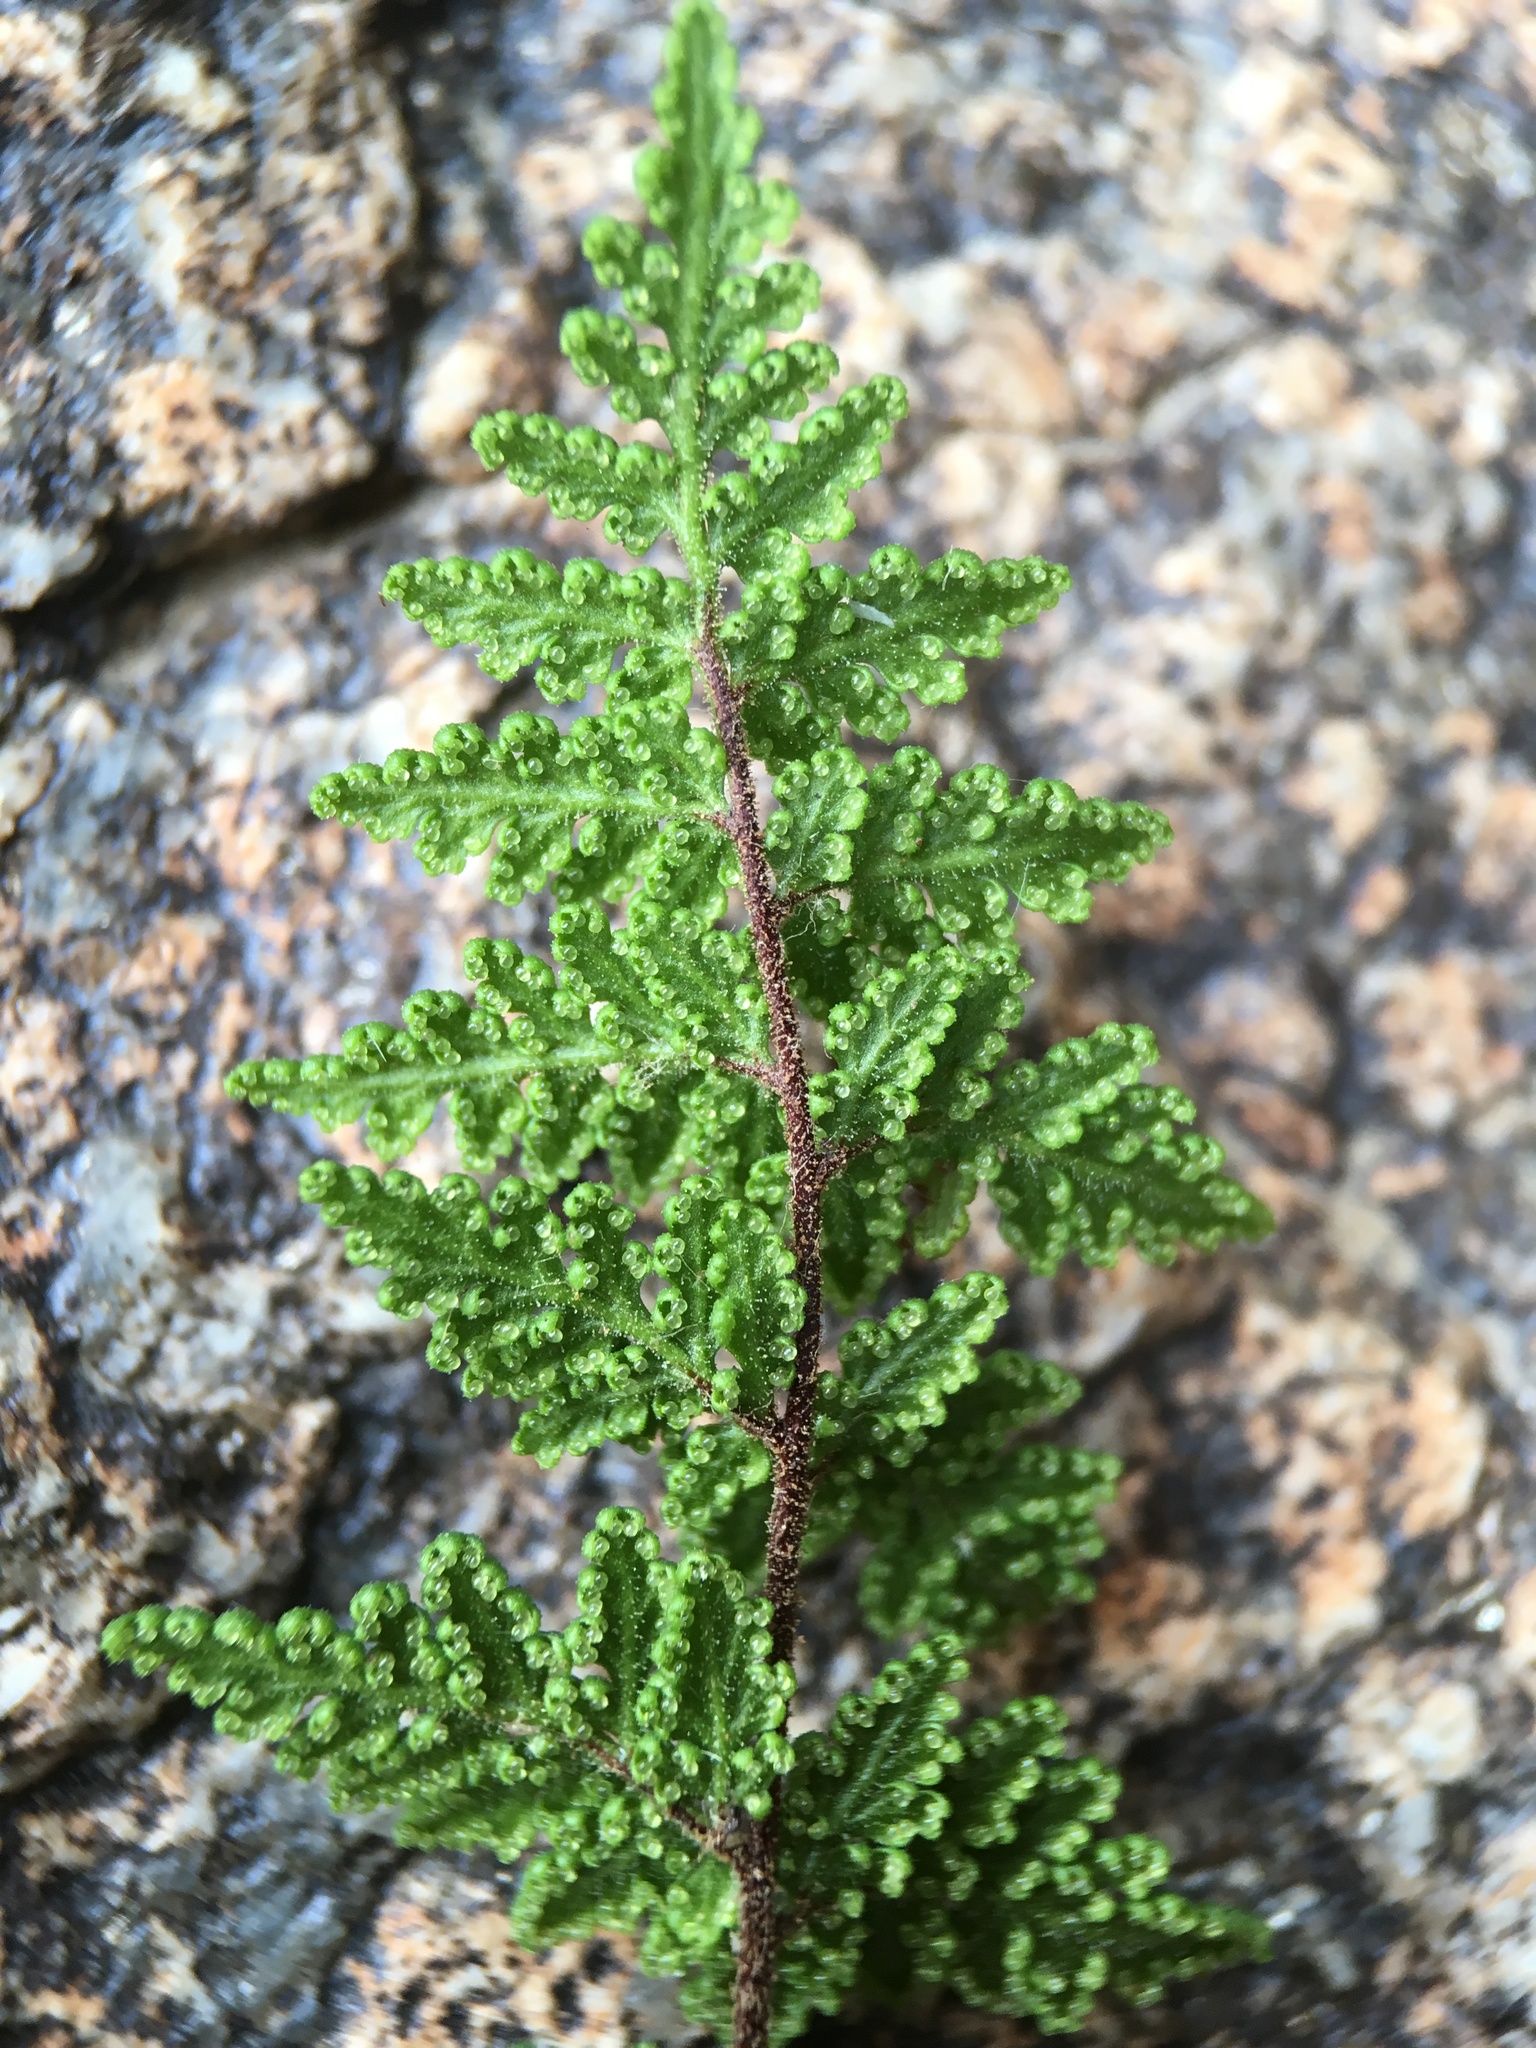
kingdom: Plantae
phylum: Tracheophyta
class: Polypodiopsida
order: Polypodiales
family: Pteridaceae
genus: Myriopteris
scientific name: Myriopteris viscida
